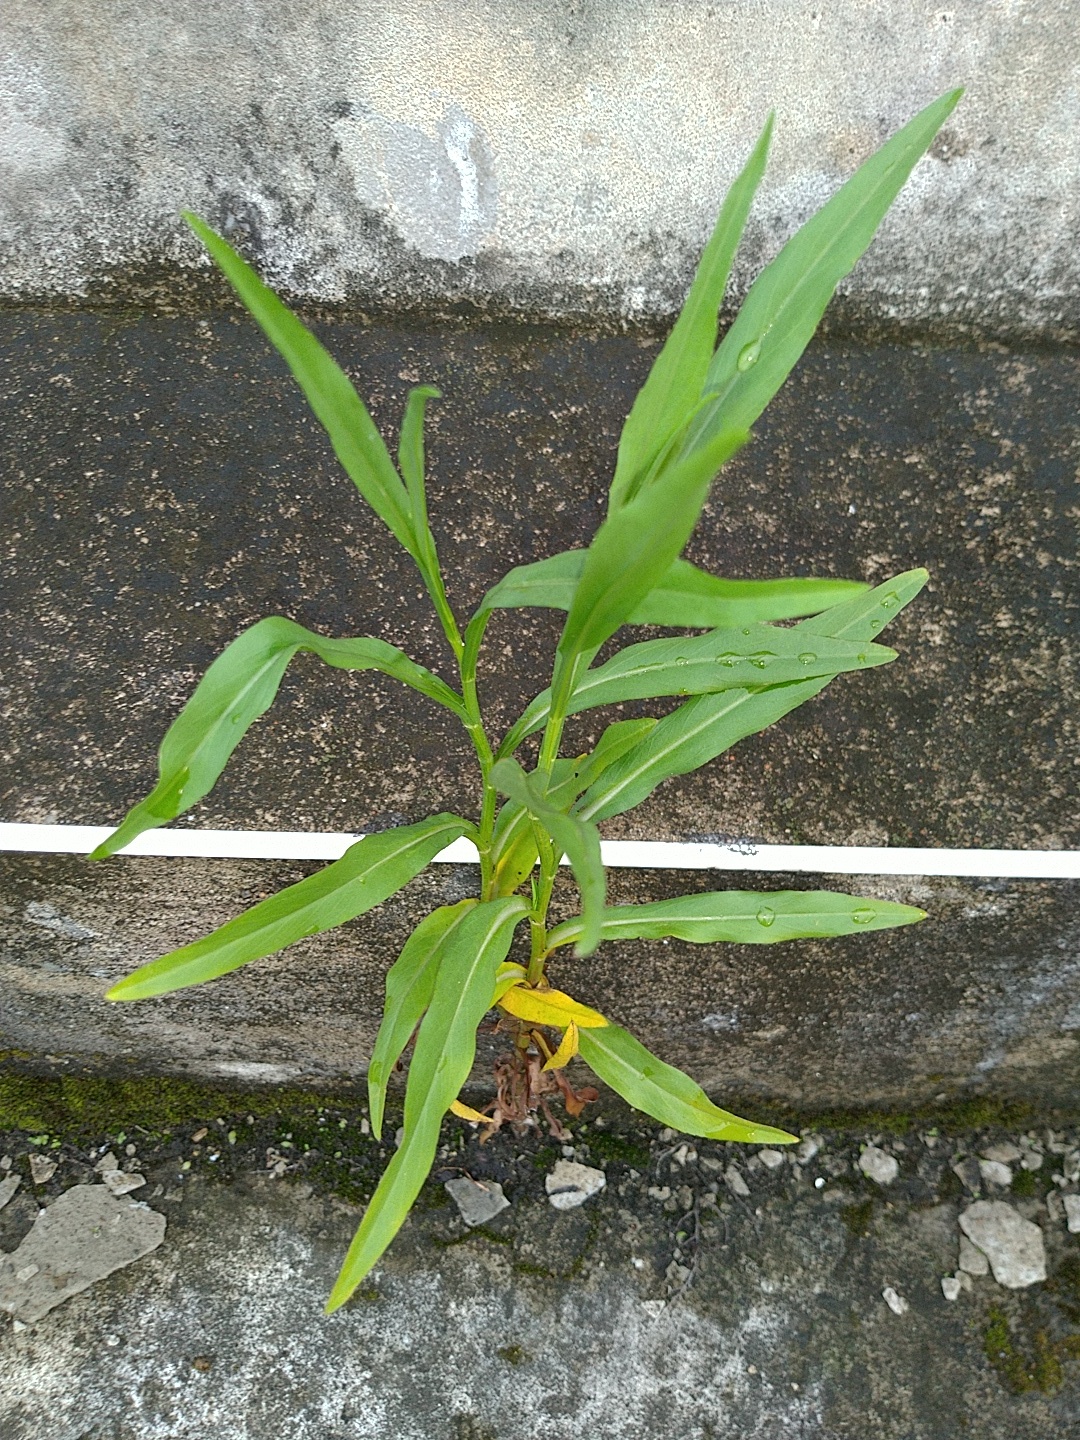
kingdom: Plantae
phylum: Tracheophyta
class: Magnoliopsida
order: Asterales
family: Asteraceae
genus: Symphyotrichum
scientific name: Symphyotrichum subulatum
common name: Annual saltmarsh aster
